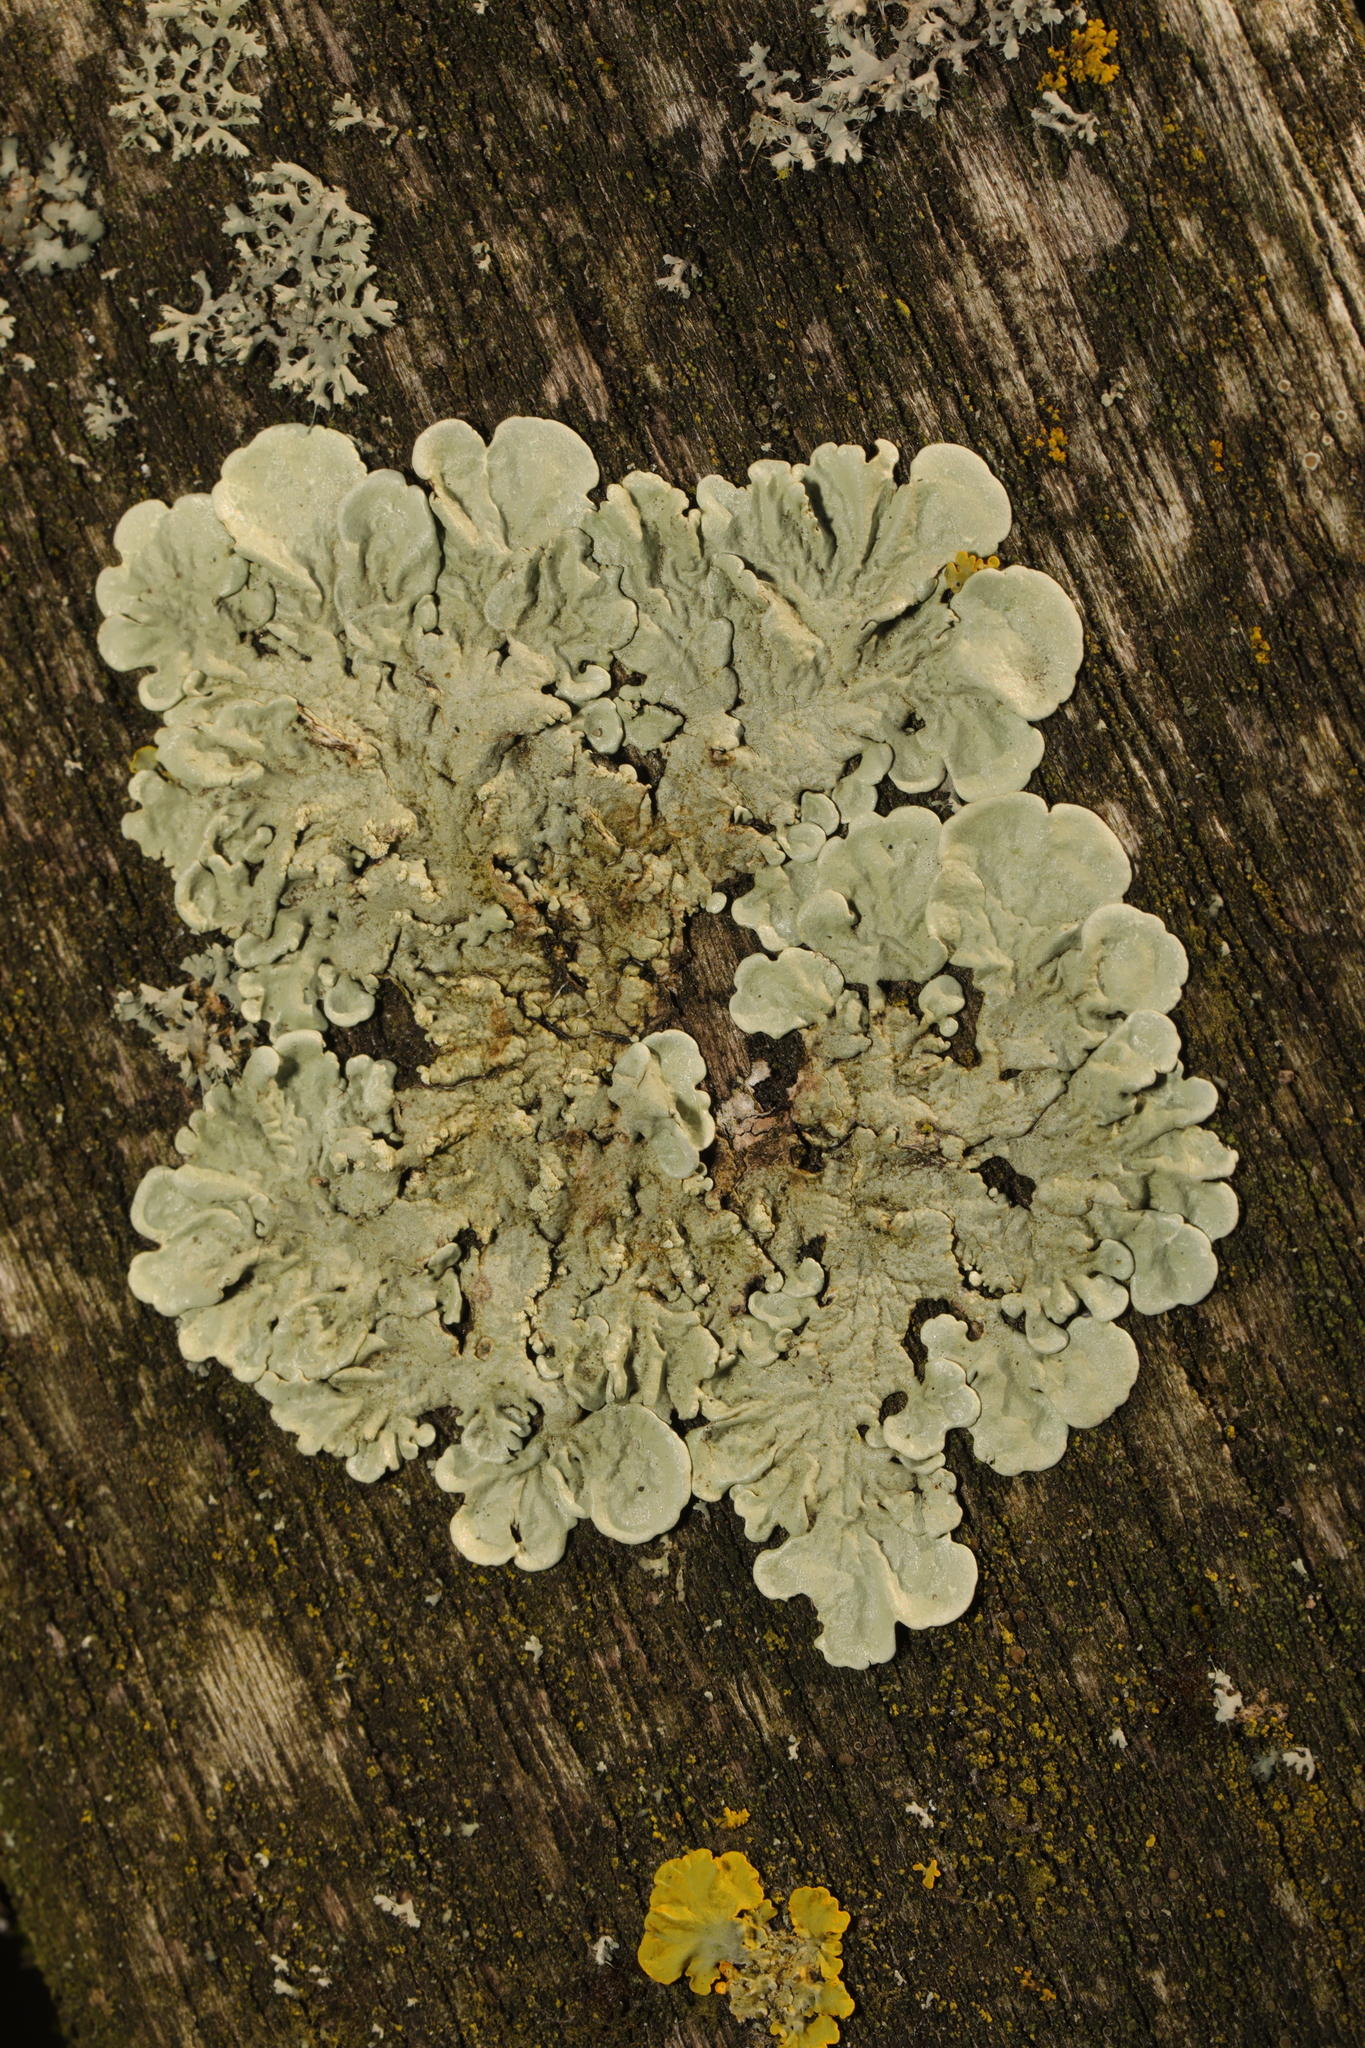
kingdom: Fungi
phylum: Ascomycota
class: Lecanoromycetes
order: Lecanorales
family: Parmeliaceae
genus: Flavoparmelia
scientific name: Flavoparmelia soredians
